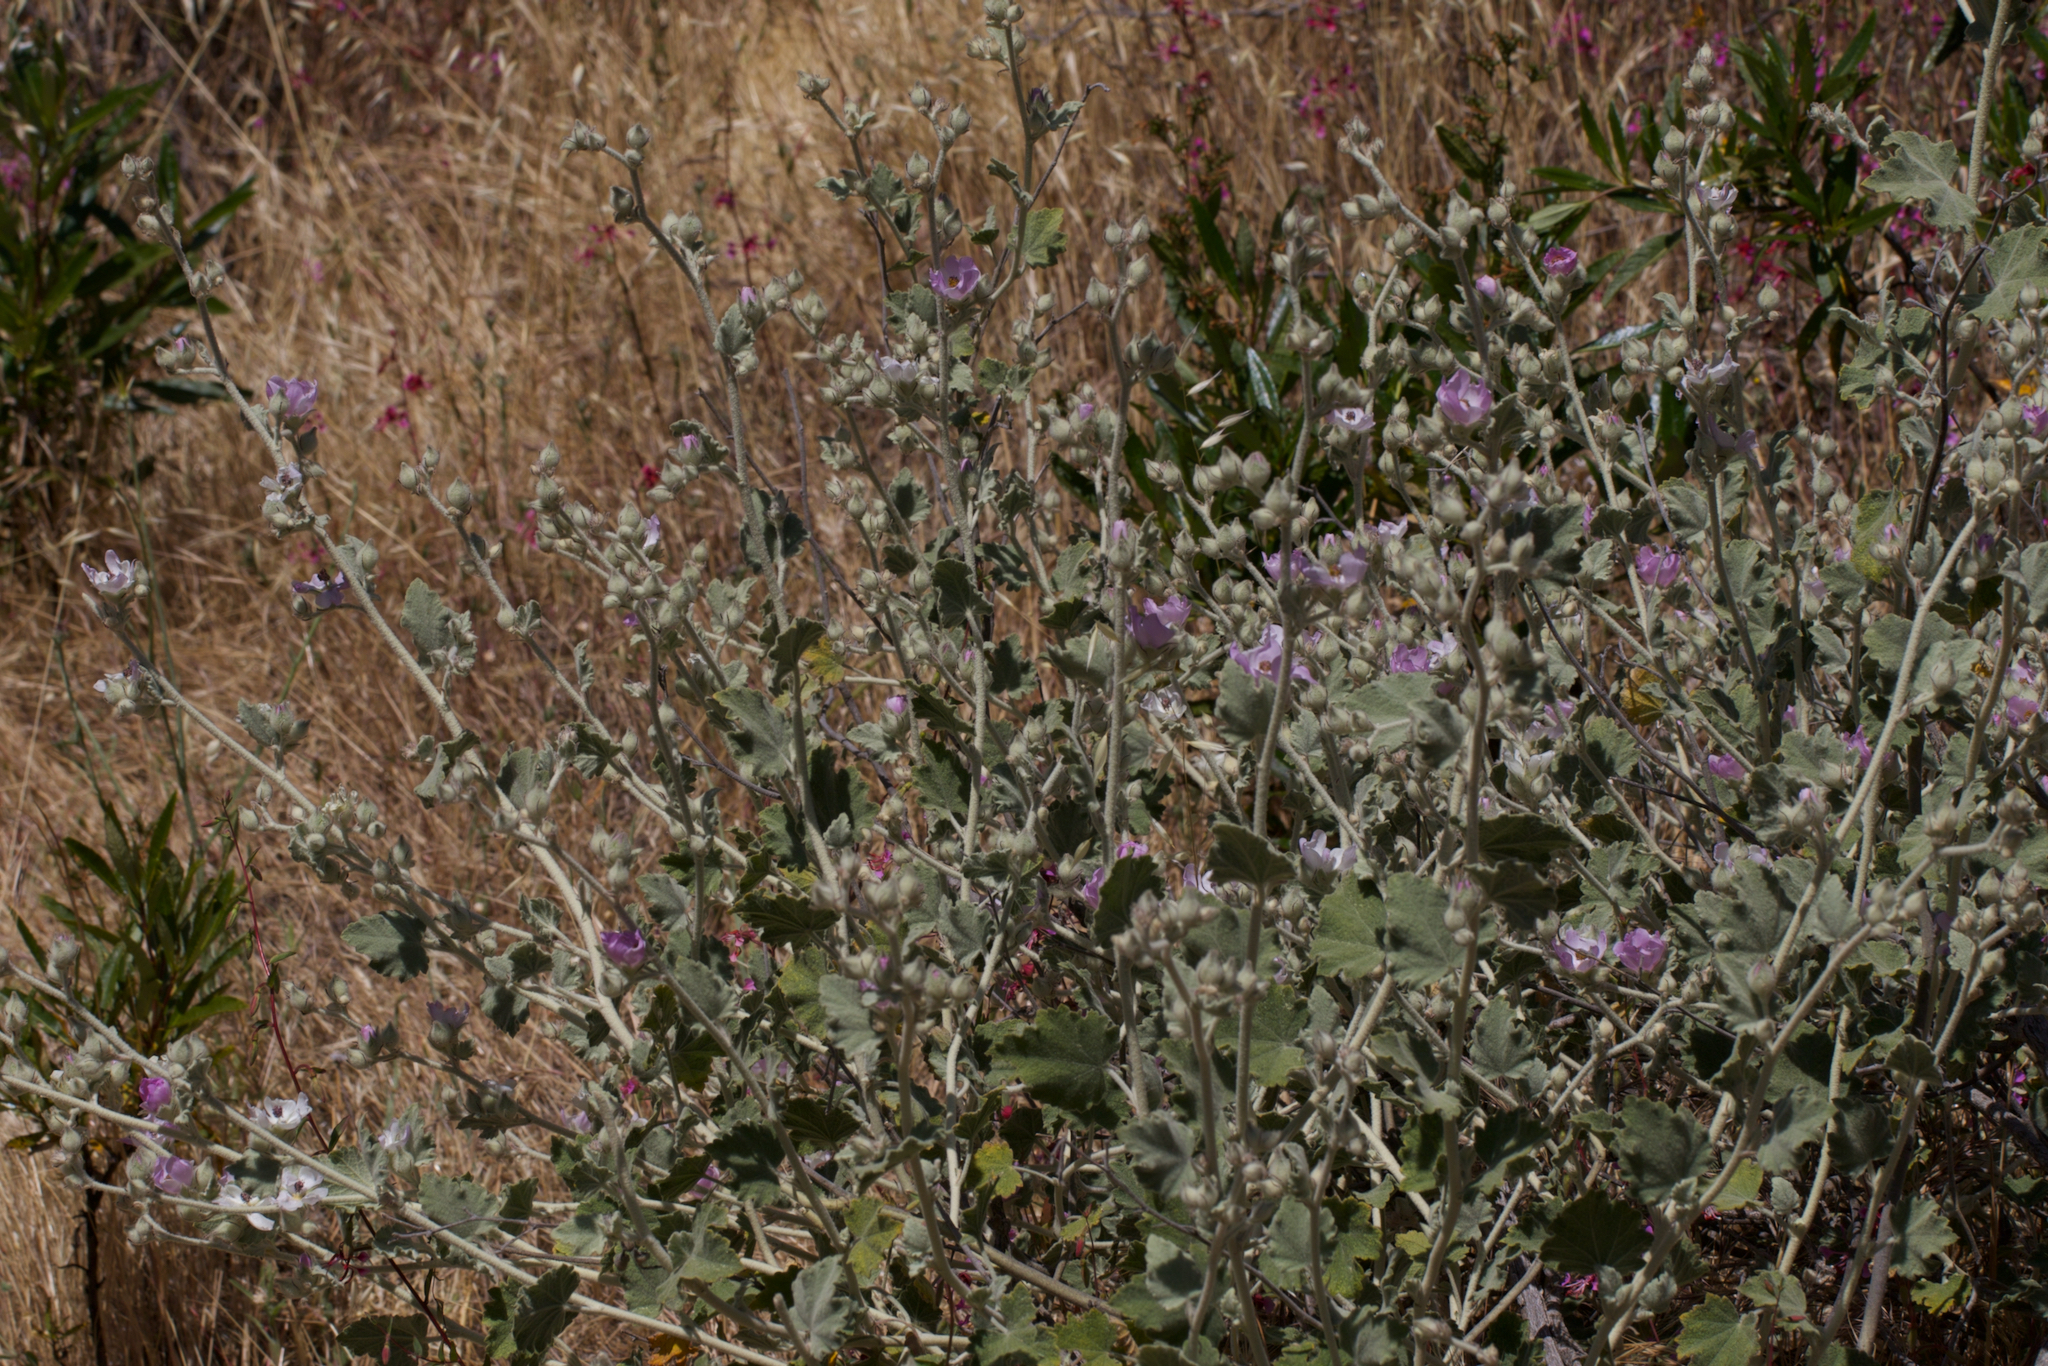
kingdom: Plantae
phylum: Tracheophyta
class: Magnoliopsida
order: Malvales
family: Malvaceae
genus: Malacothamnus
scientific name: Malacothamnus fremontii
